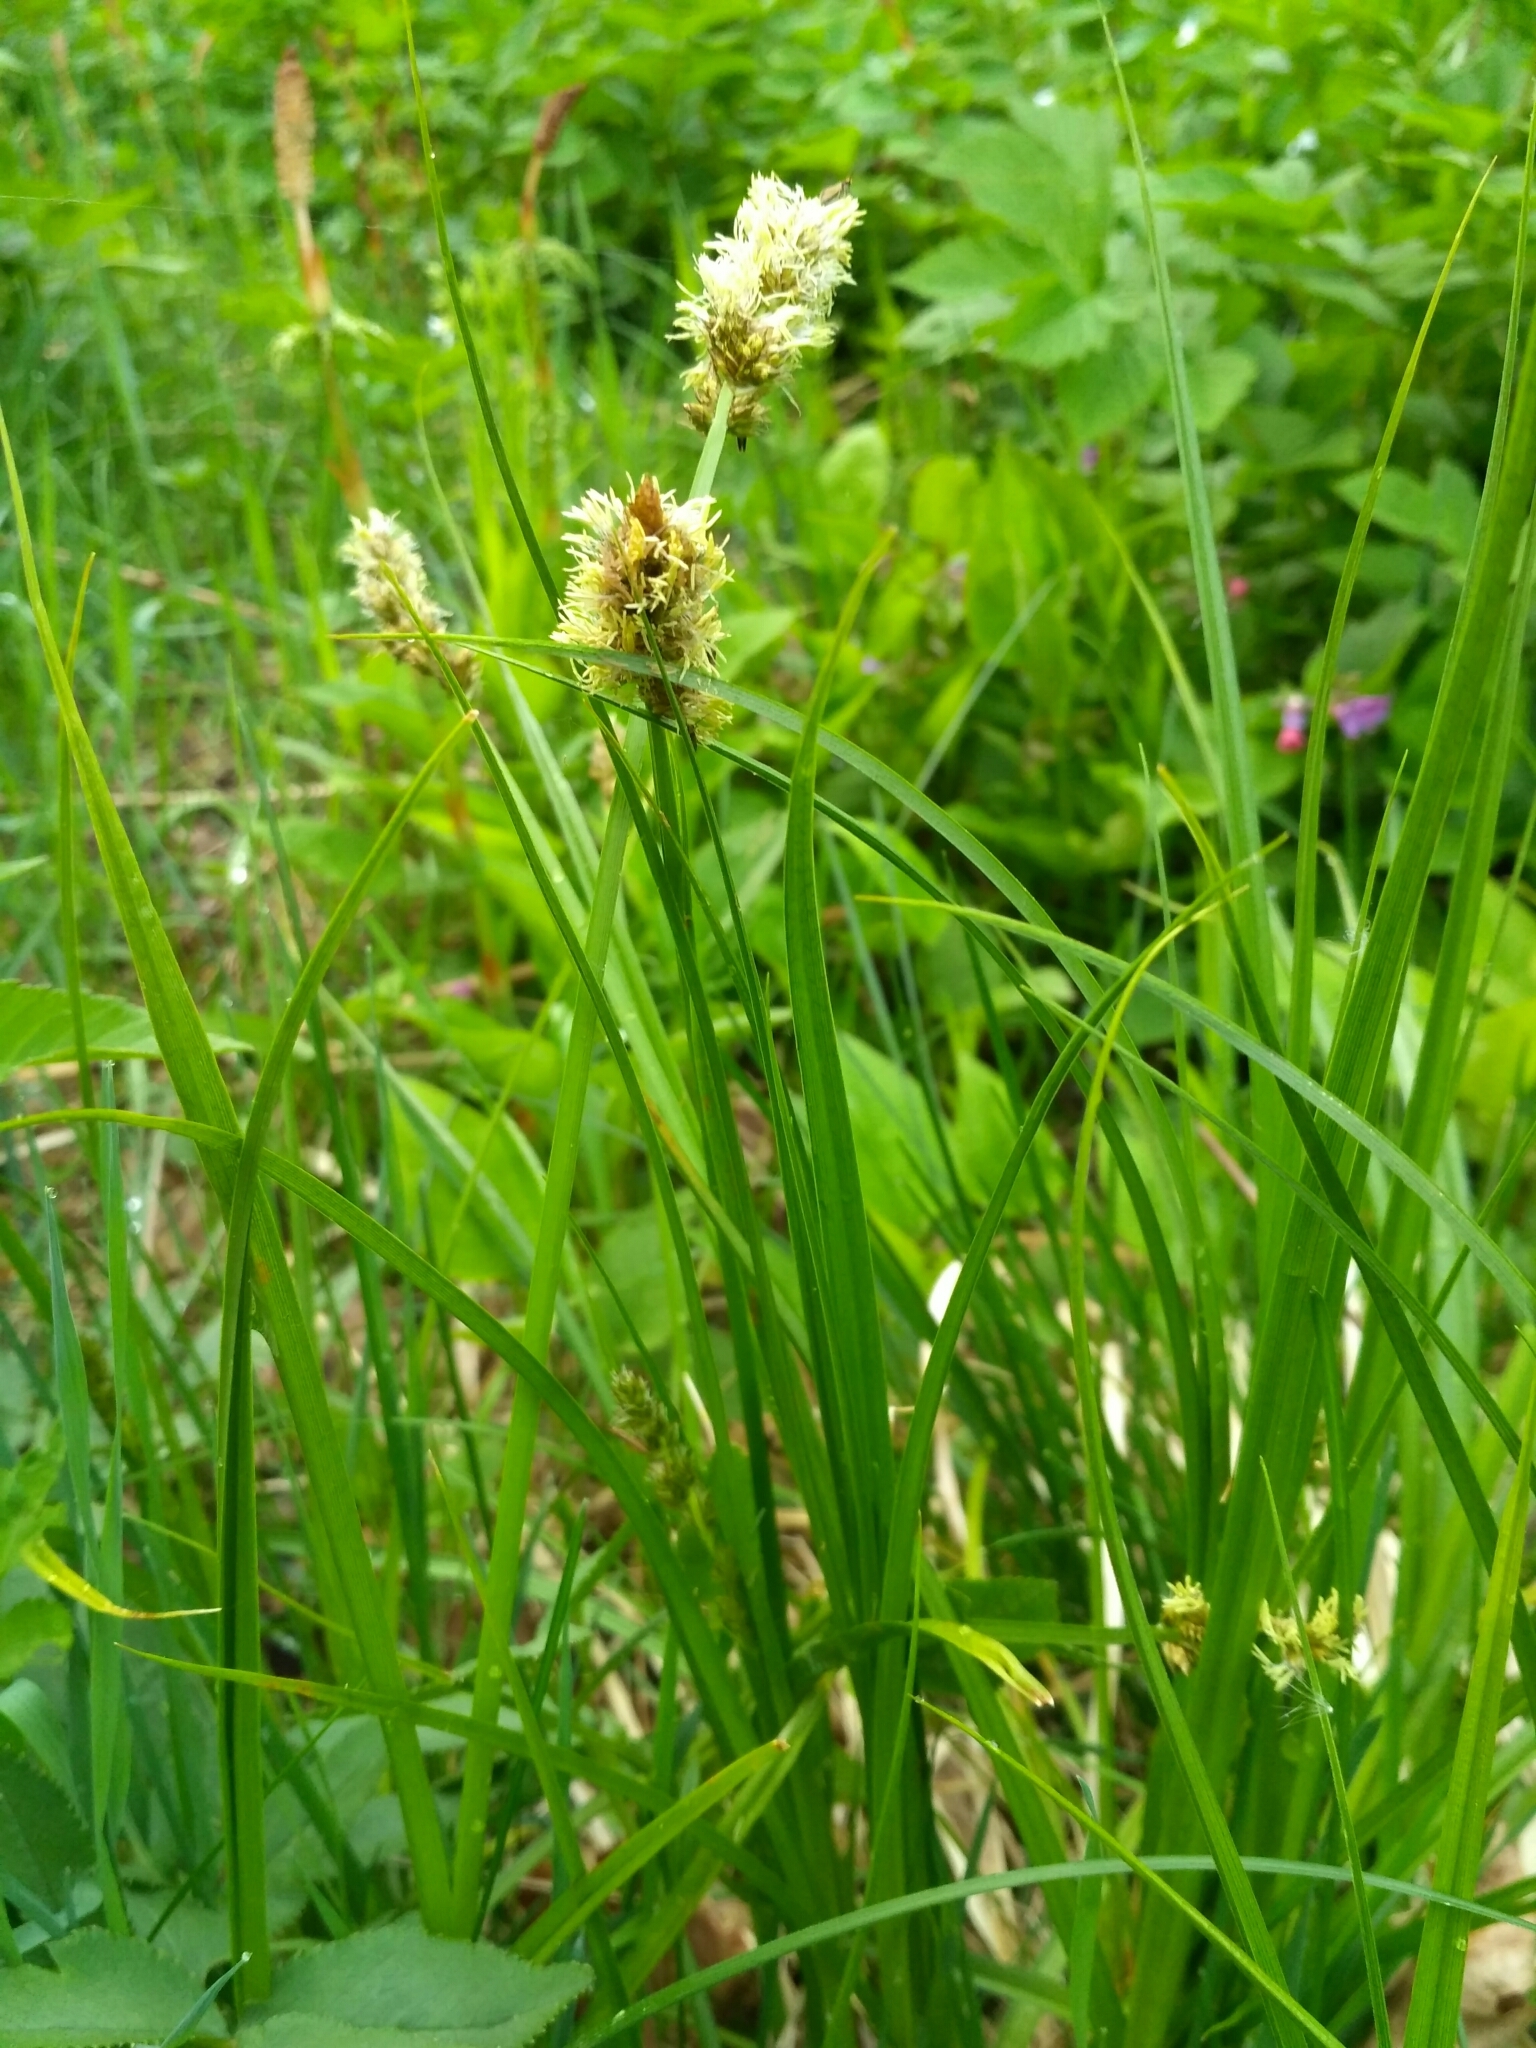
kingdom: Plantae
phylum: Tracheophyta
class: Liliopsida
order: Poales
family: Cyperaceae
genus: Carex
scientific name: Carex vulpina
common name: True fox-sedge
